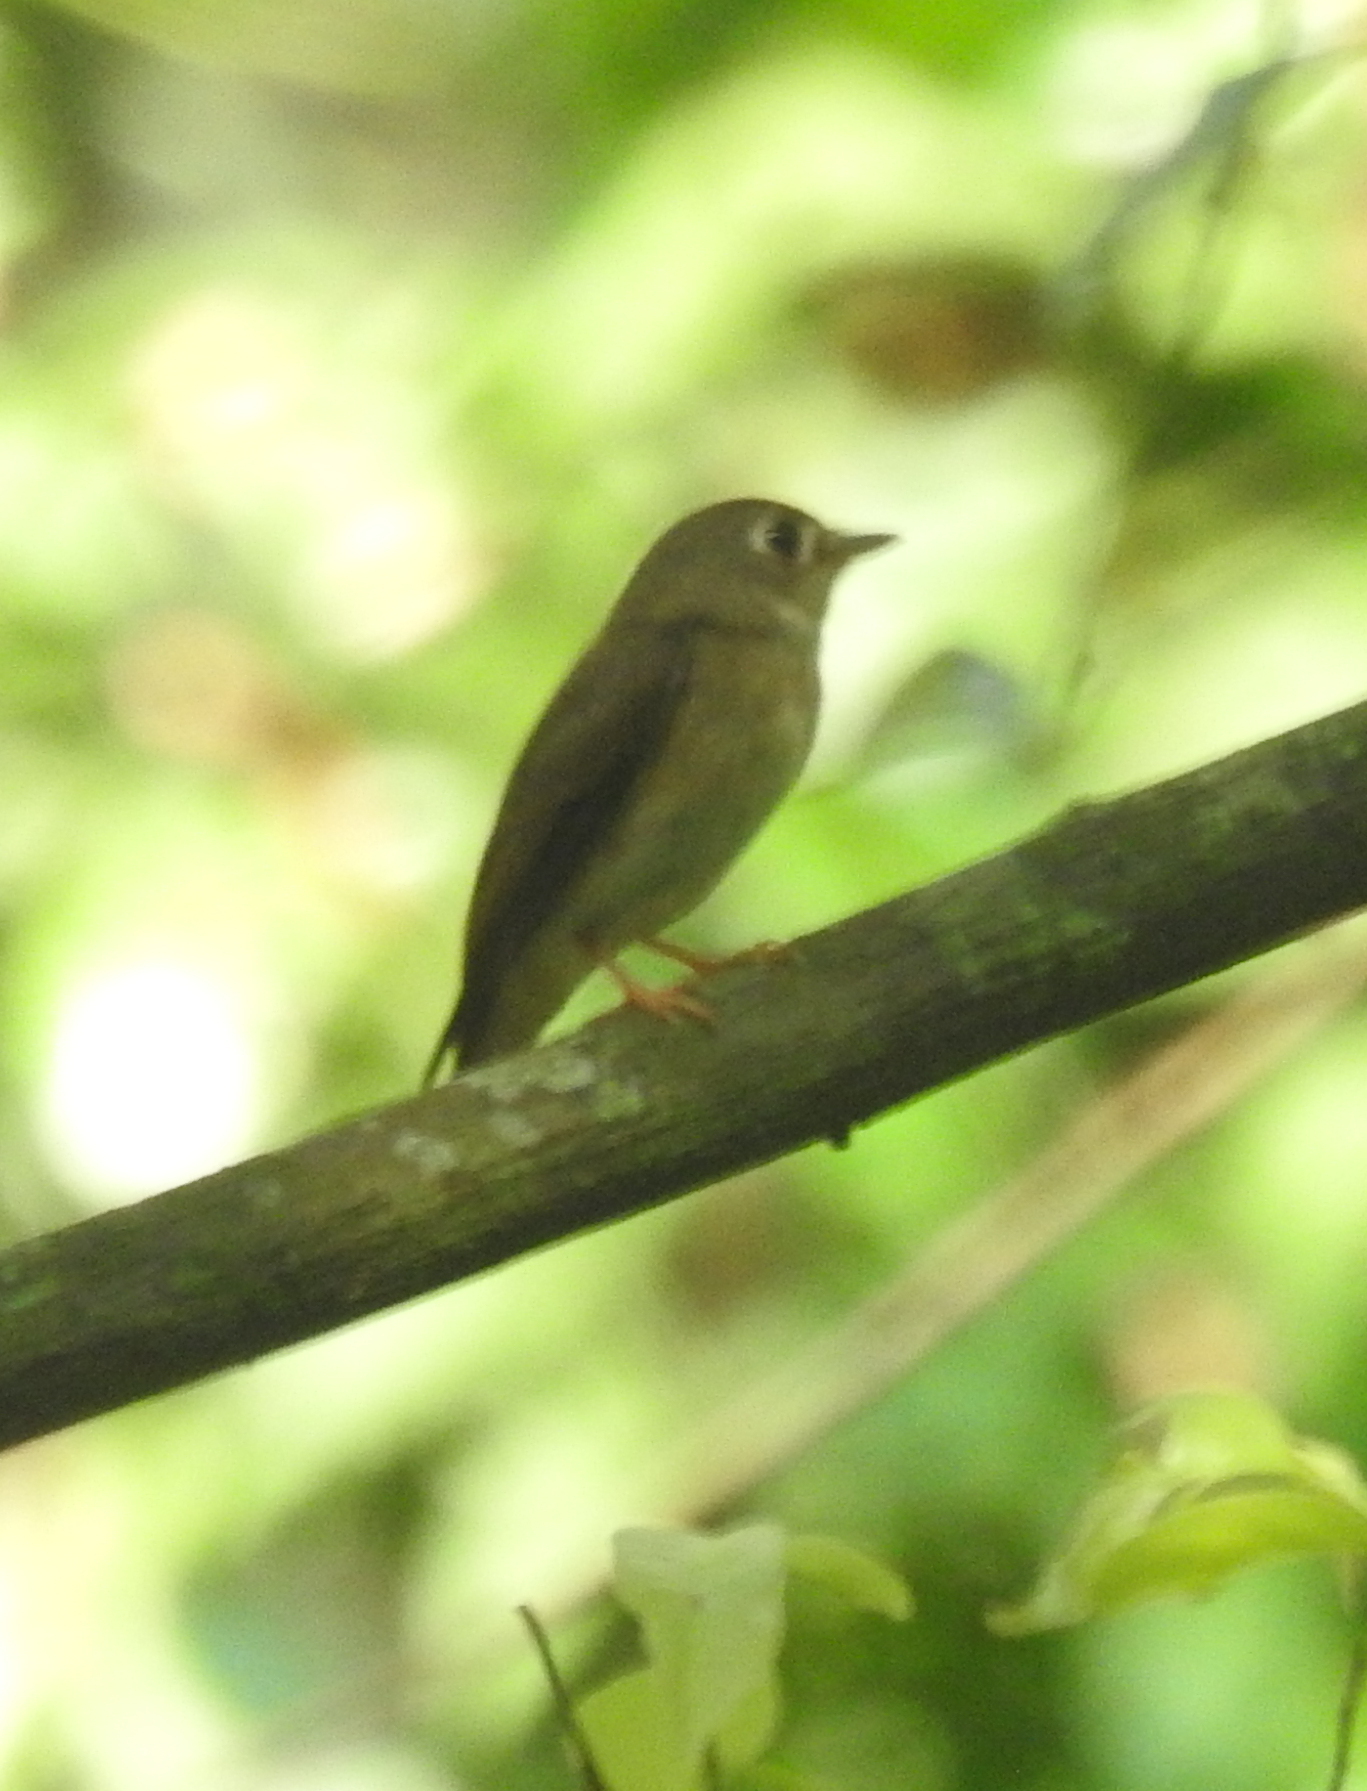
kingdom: Animalia
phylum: Chordata
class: Aves
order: Passeriformes
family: Muscicapidae
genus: Muscicapa
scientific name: Muscicapa muttui
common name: Brown-breasted flycatcher
